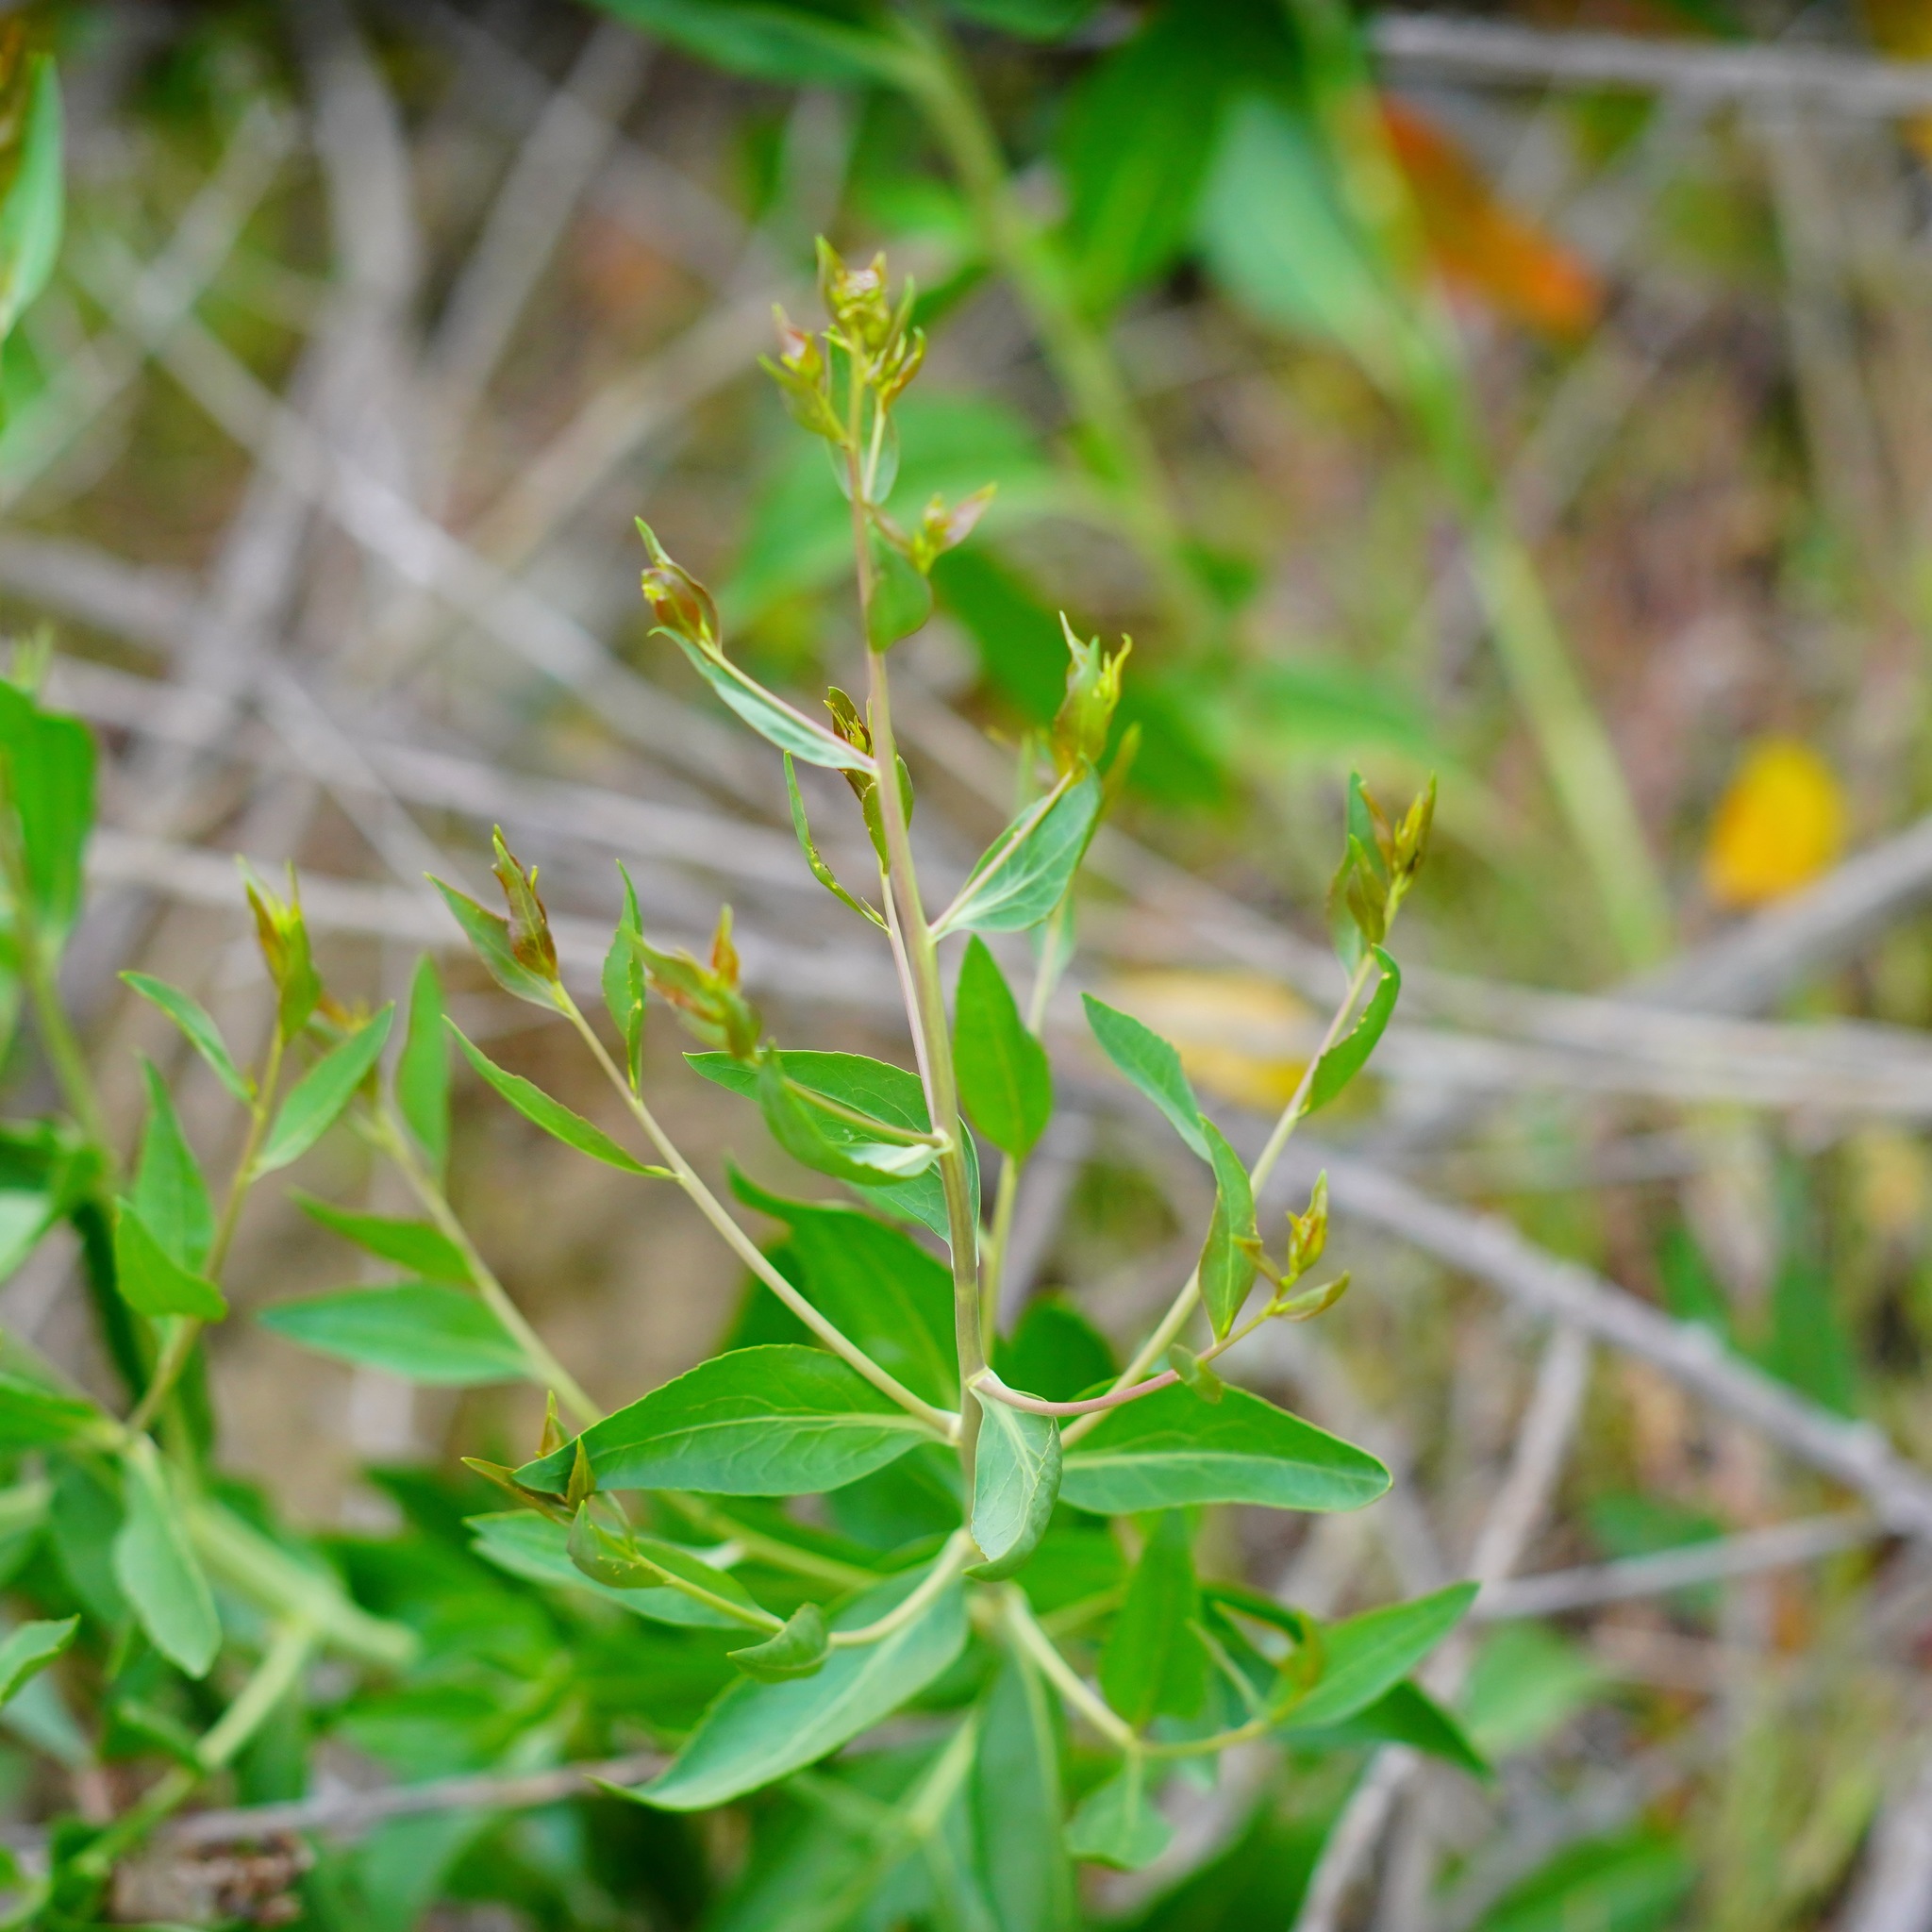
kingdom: Plantae
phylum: Tracheophyta
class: Magnoliopsida
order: Brassicales
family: Brassicaceae
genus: Lepidium
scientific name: Lepidium latifolium
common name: Dittander
